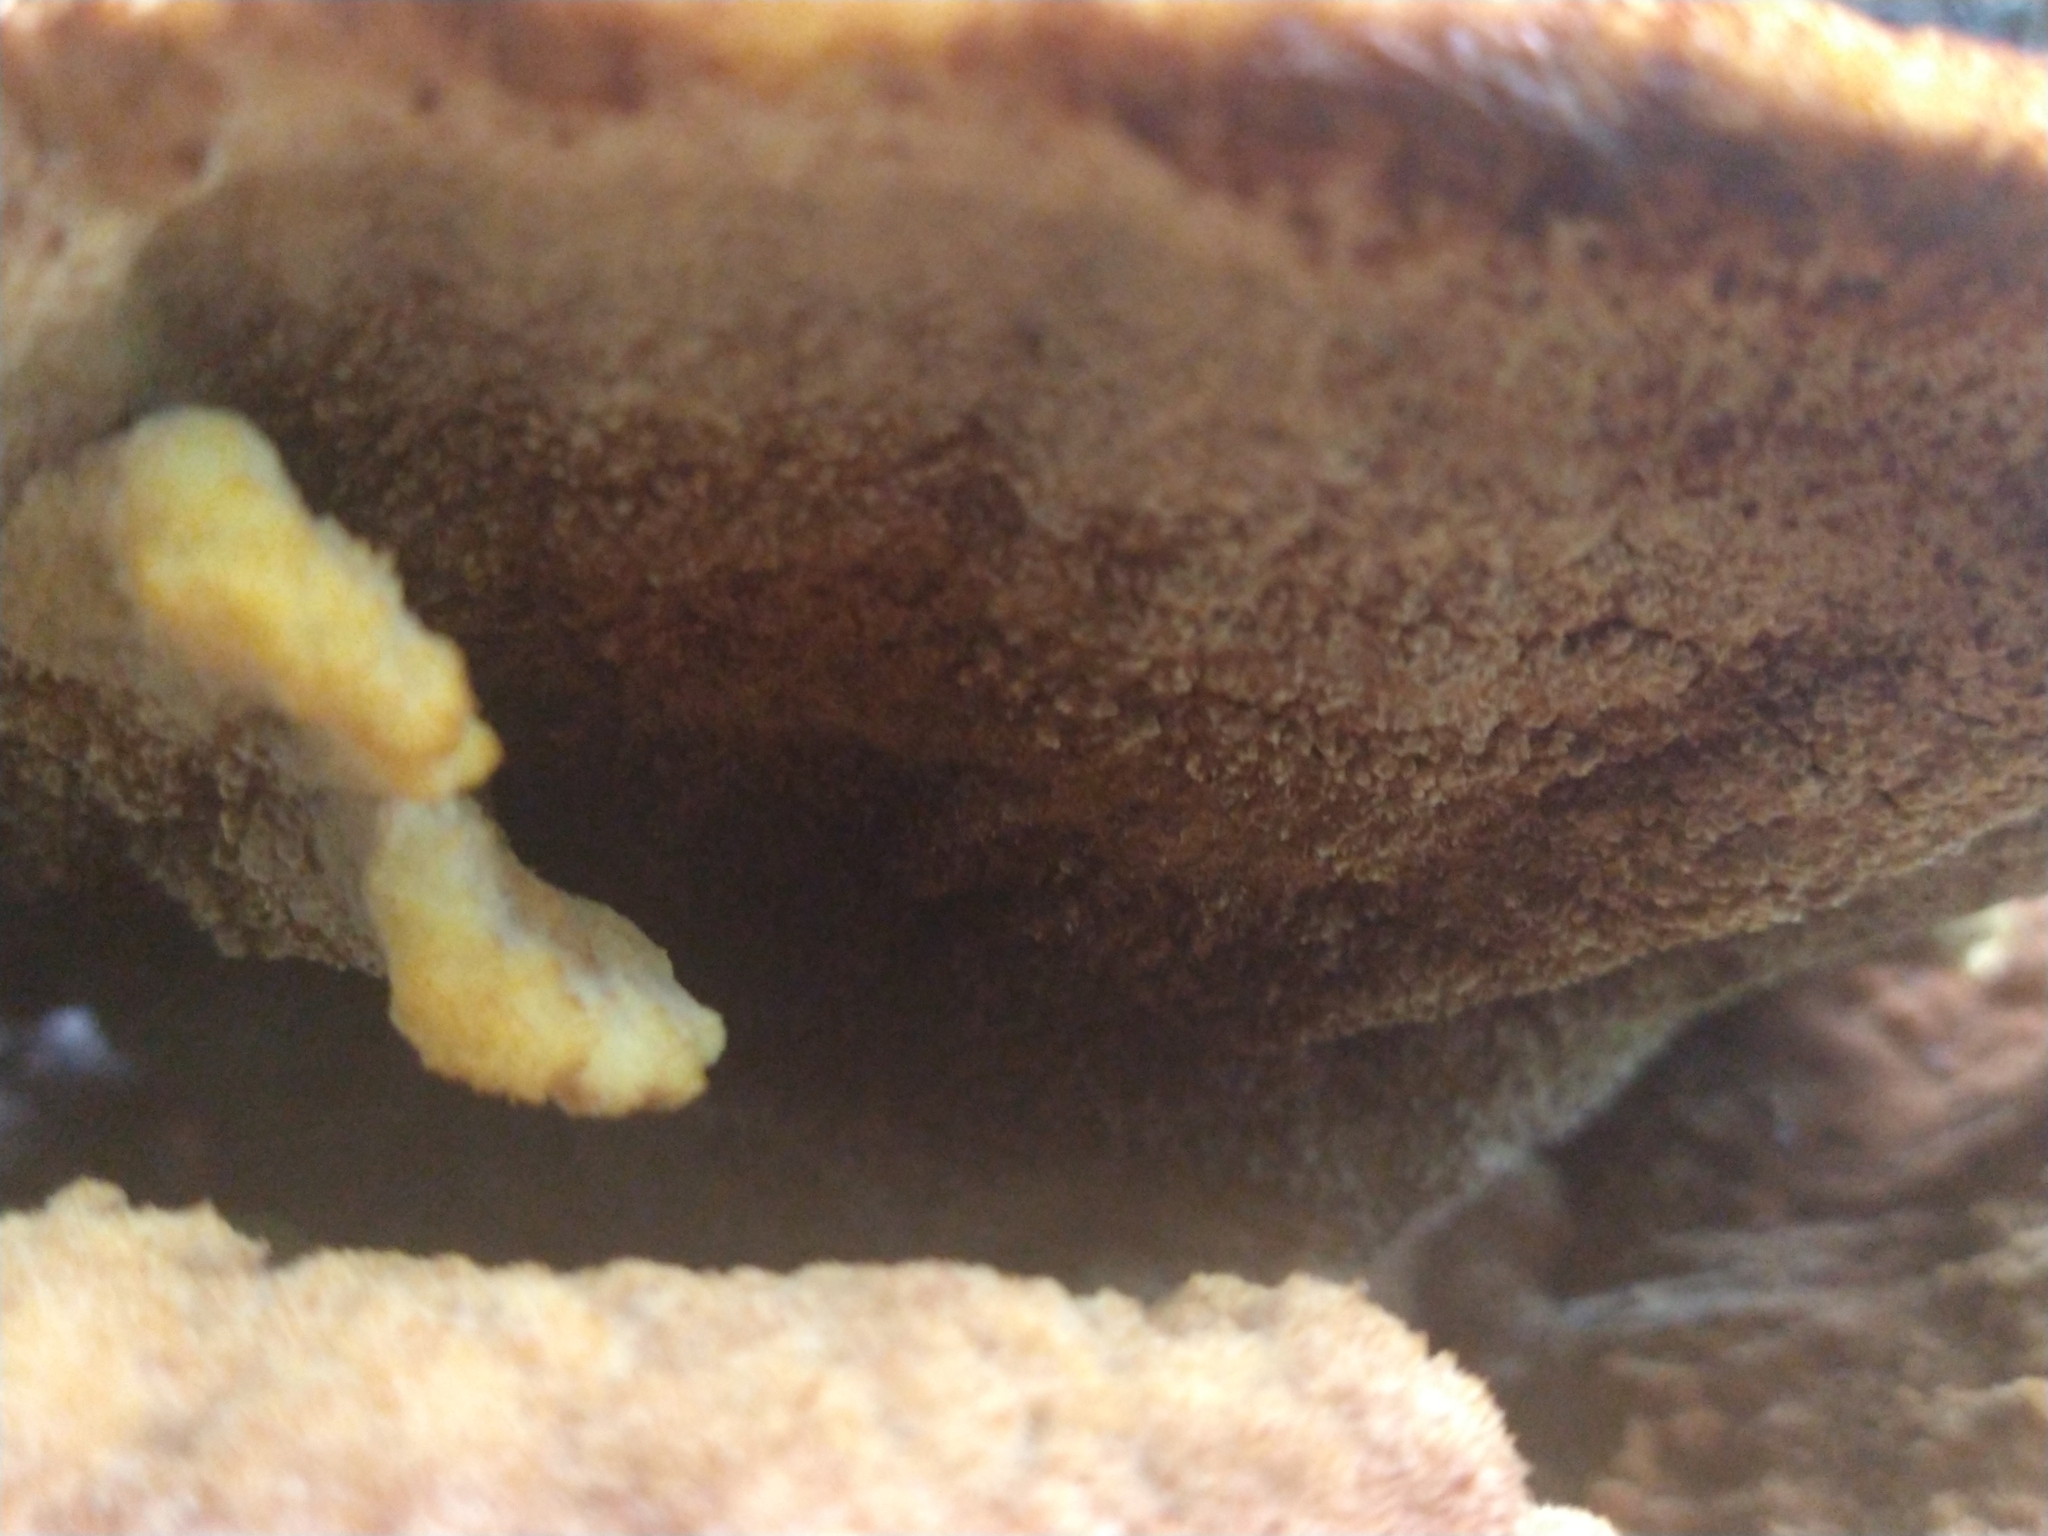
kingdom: Fungi
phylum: Basidiomycota
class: Agaricomycetes
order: Polyporales
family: Laetiporaceae
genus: Phaeolus
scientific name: Phaeolus schweinitzii
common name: Dyer's mazegill
